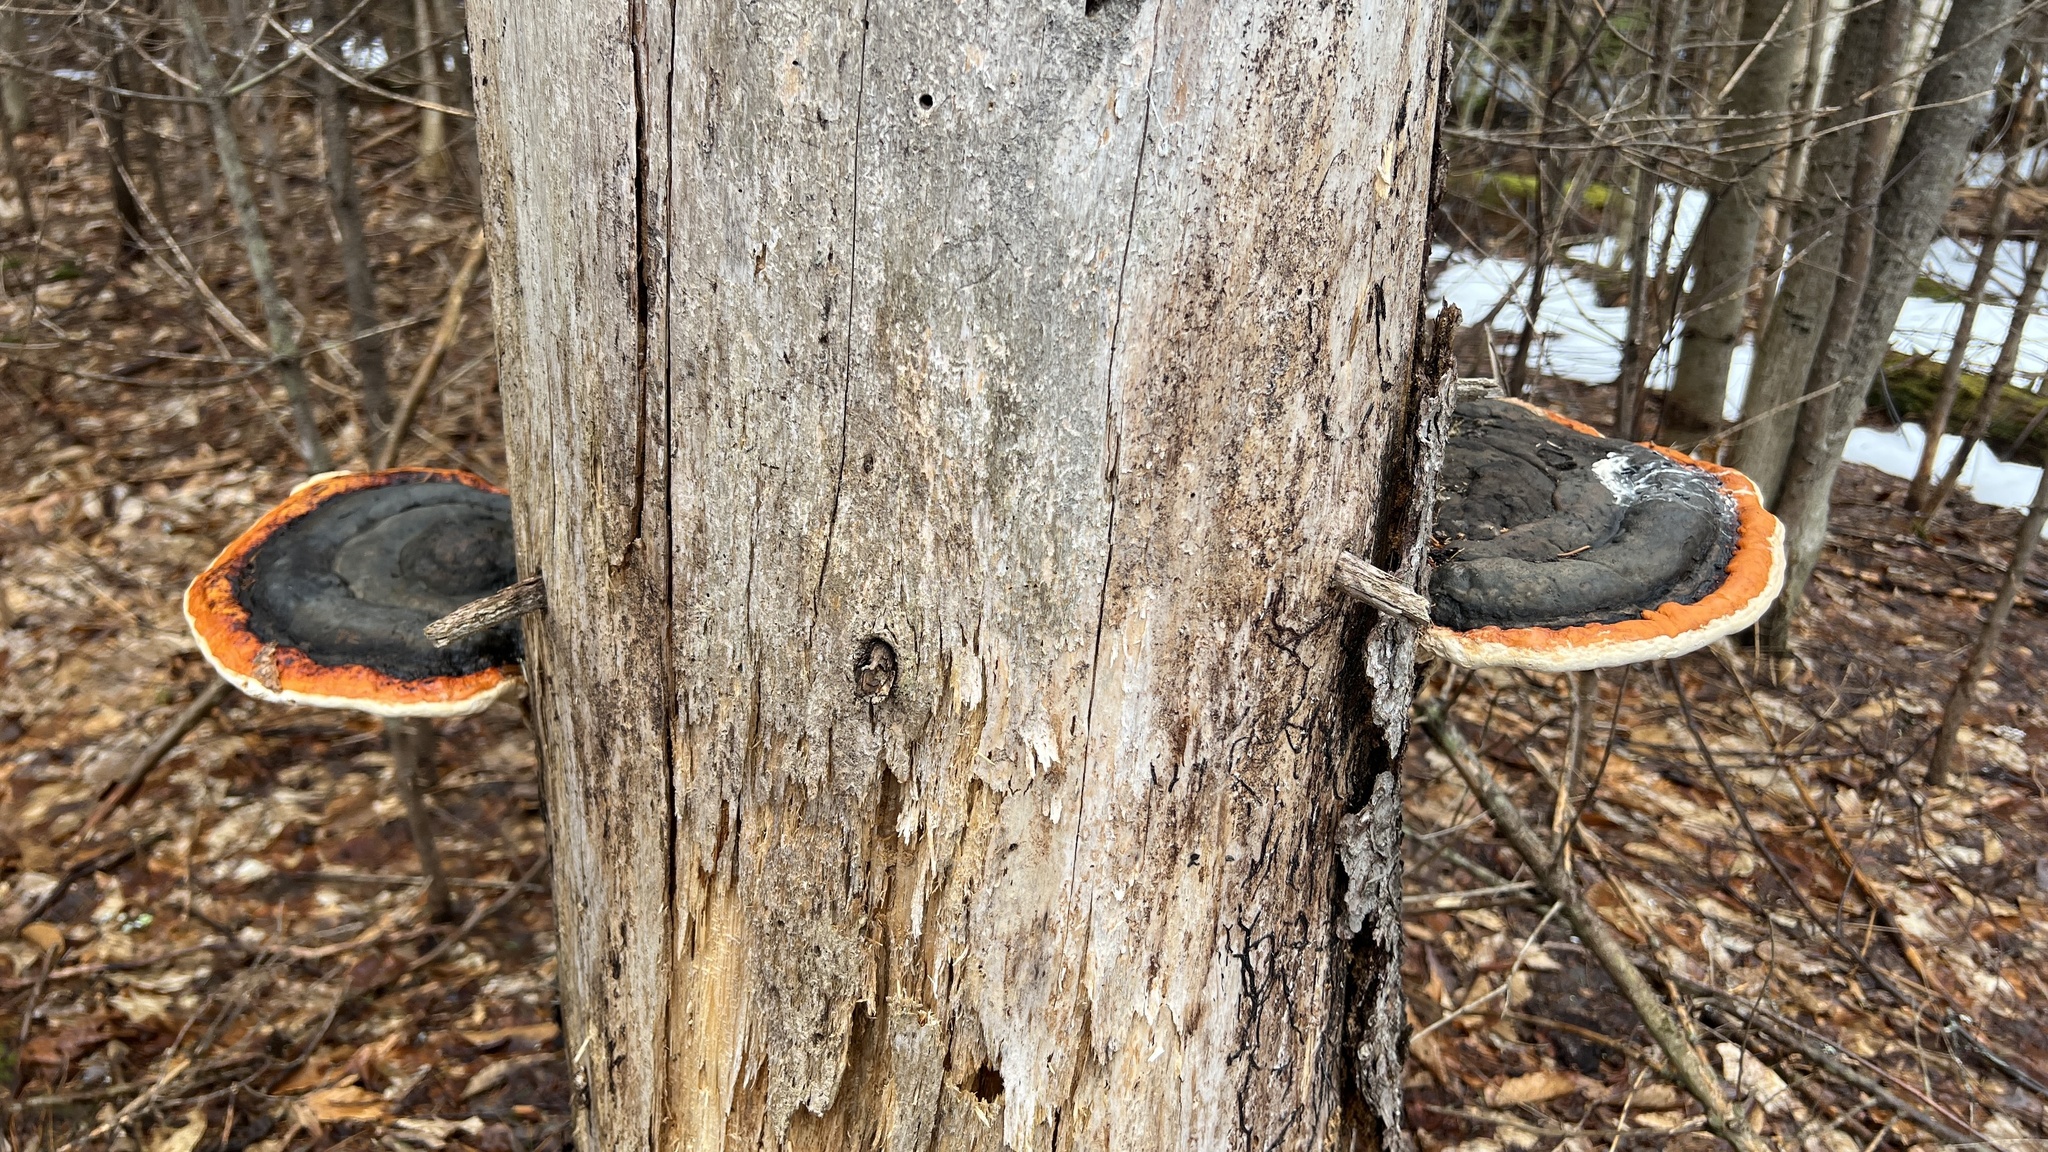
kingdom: Fungi
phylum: Basidiomycota
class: Agaricomycetes
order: Polyporales
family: Fomitopsidaceae
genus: Fomitopsis
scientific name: Fomitopsis mounceae
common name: Northern red belt
